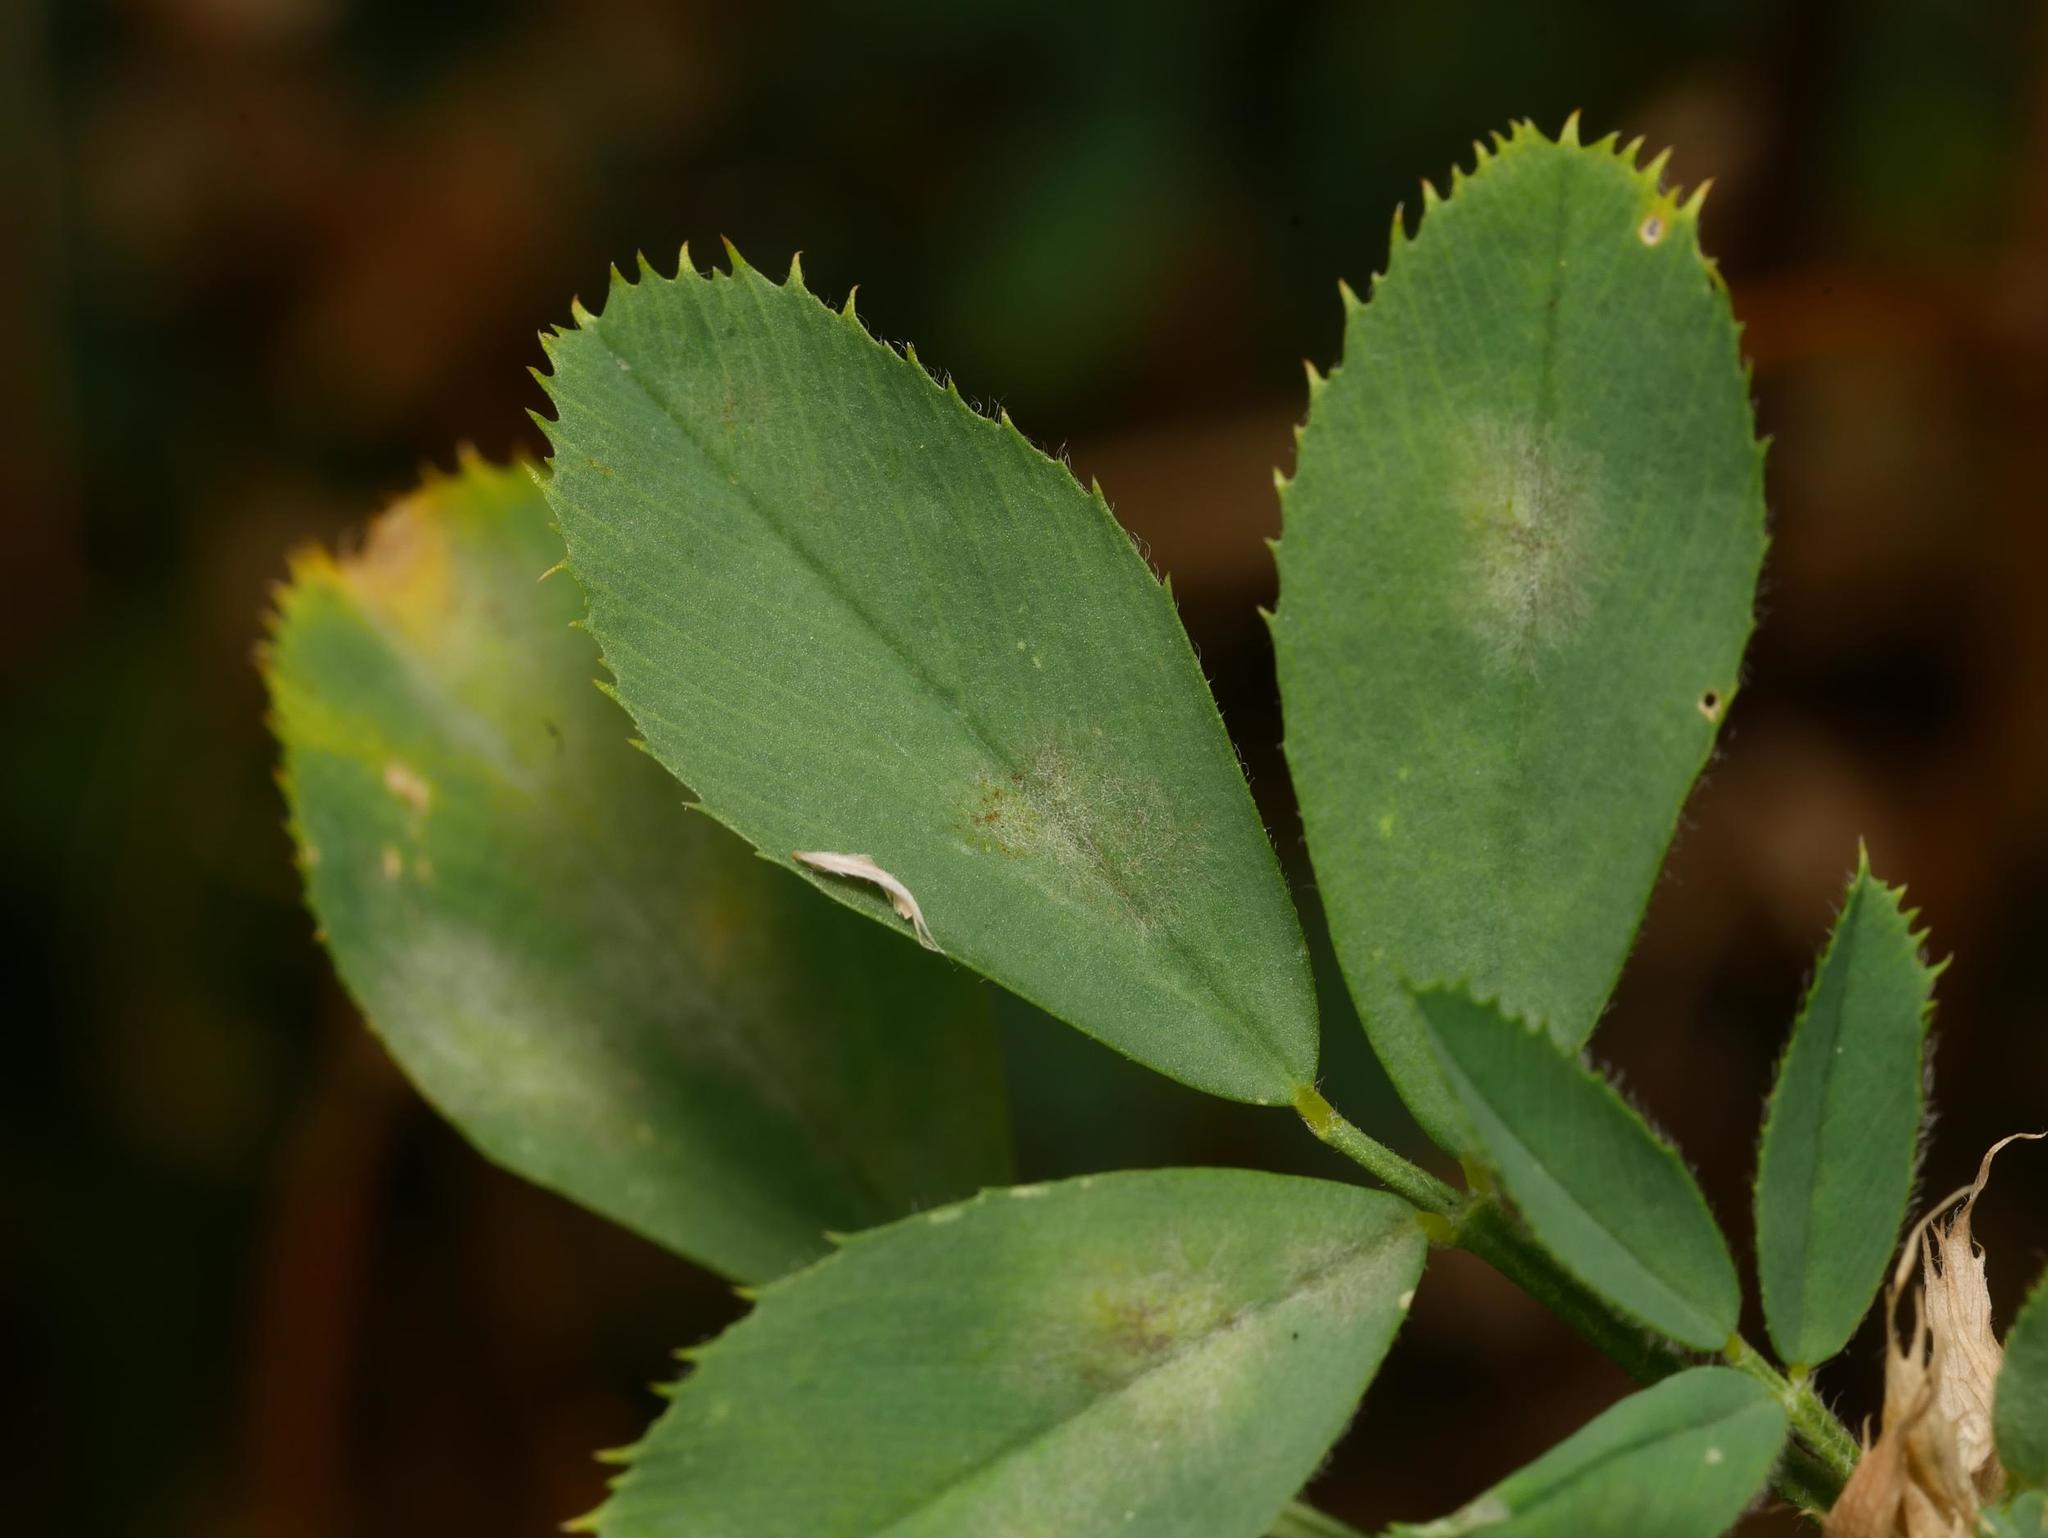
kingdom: Fungi
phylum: Ascomycota
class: Leotiomycetes
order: Helotiales
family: Erysiphaceae
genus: Erysiphe
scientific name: Erysiphe pisi
